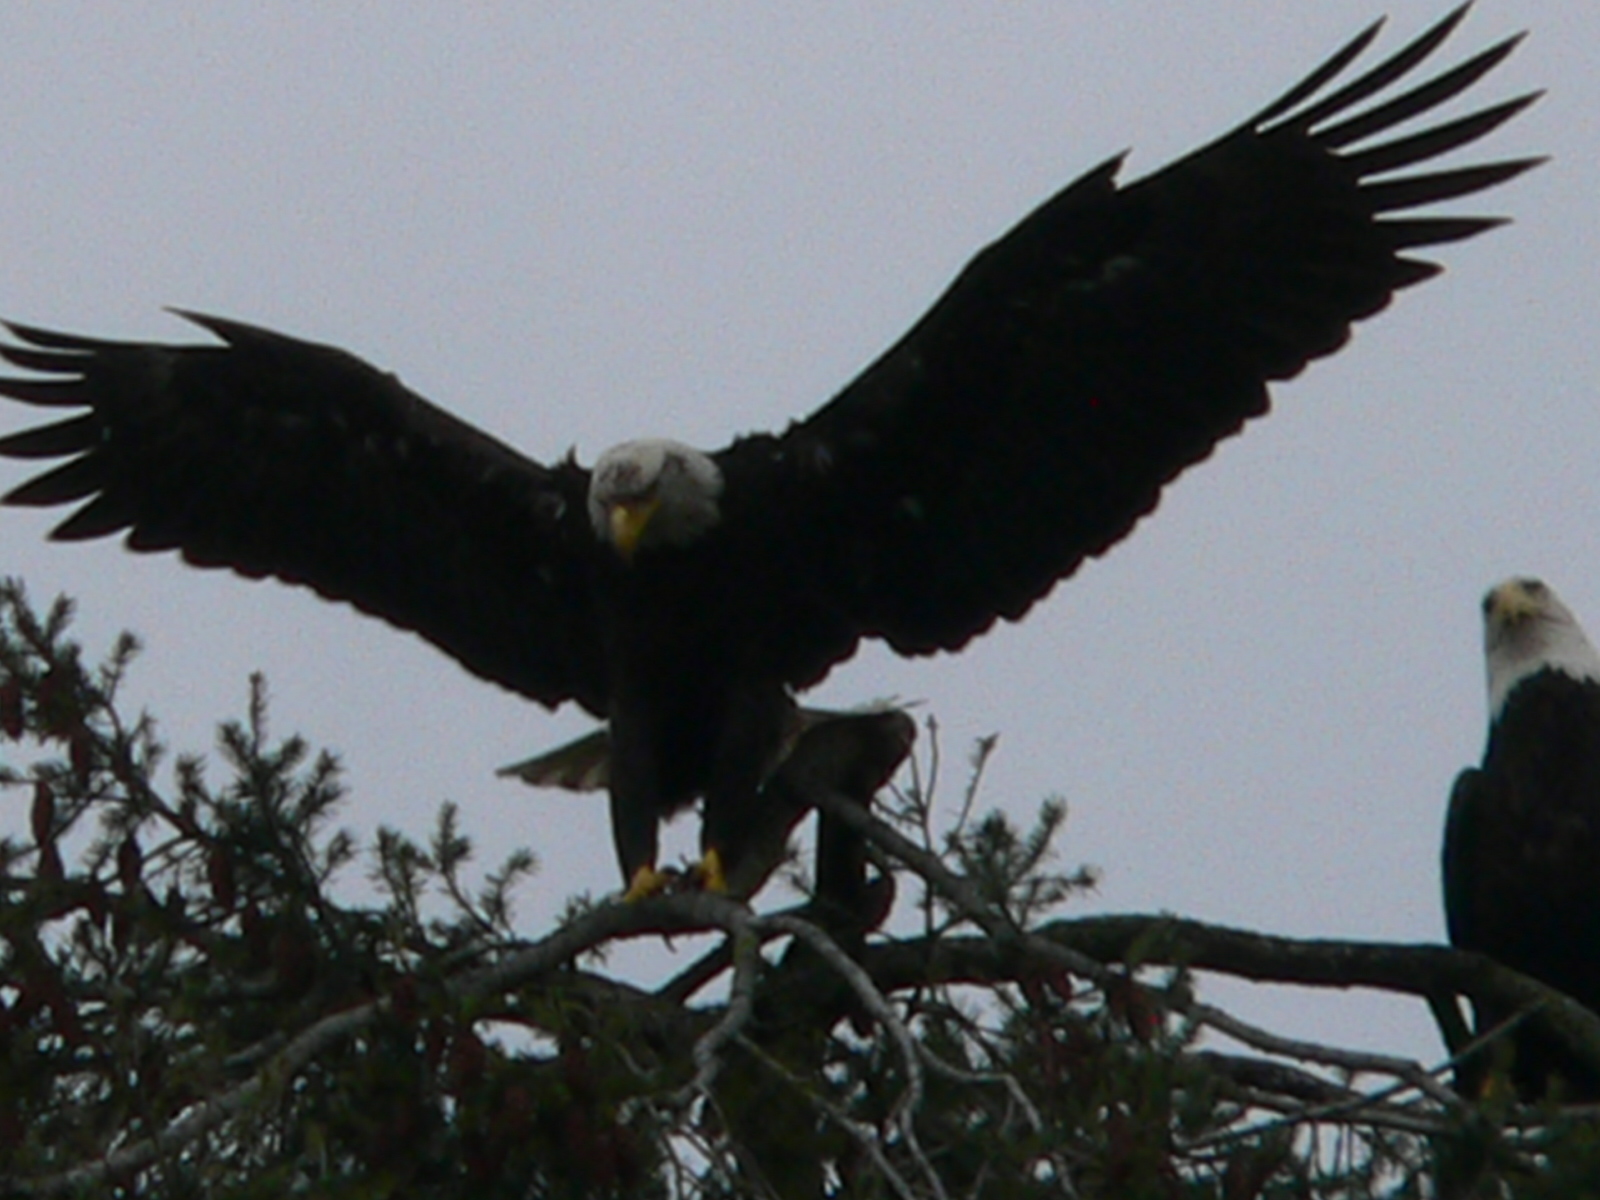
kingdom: Animalia
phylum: Chordata
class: Aves
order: Accipitriformes
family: Accipitridae
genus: Haliaeetus
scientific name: Haliaeetus leucocephalus
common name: Bald eagle
